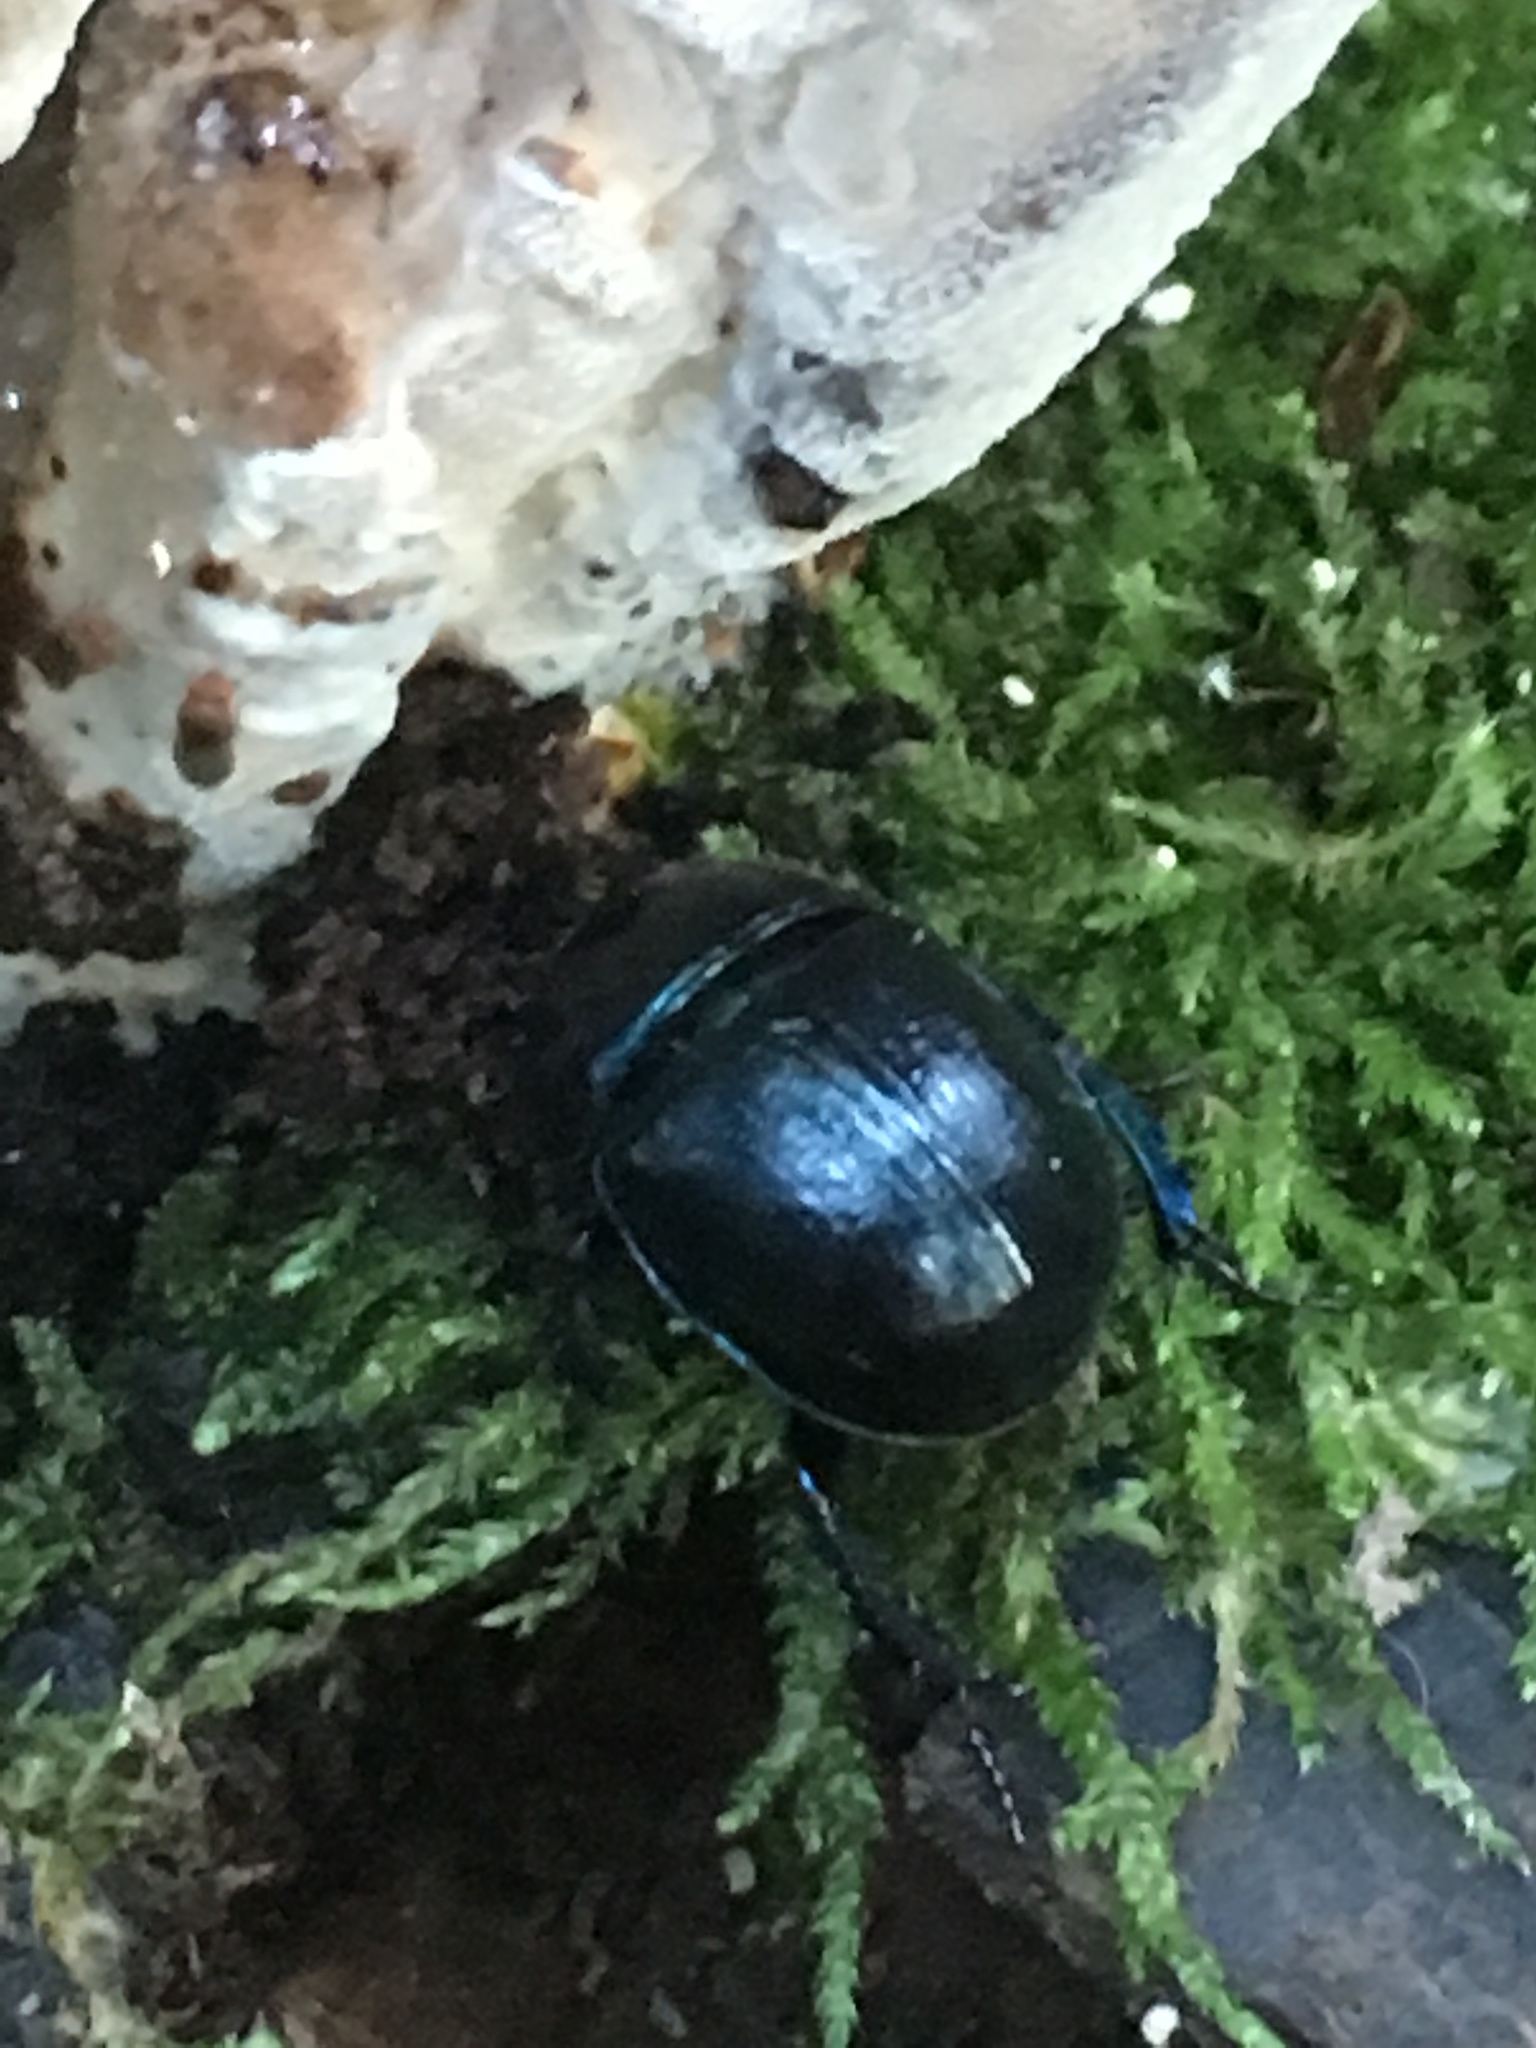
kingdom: Animalia
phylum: Arthropoda
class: Insecta
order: Coleoptera
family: Geotrupidae
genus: Anoplotrupes
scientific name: Anoplotrupes stercorosus
